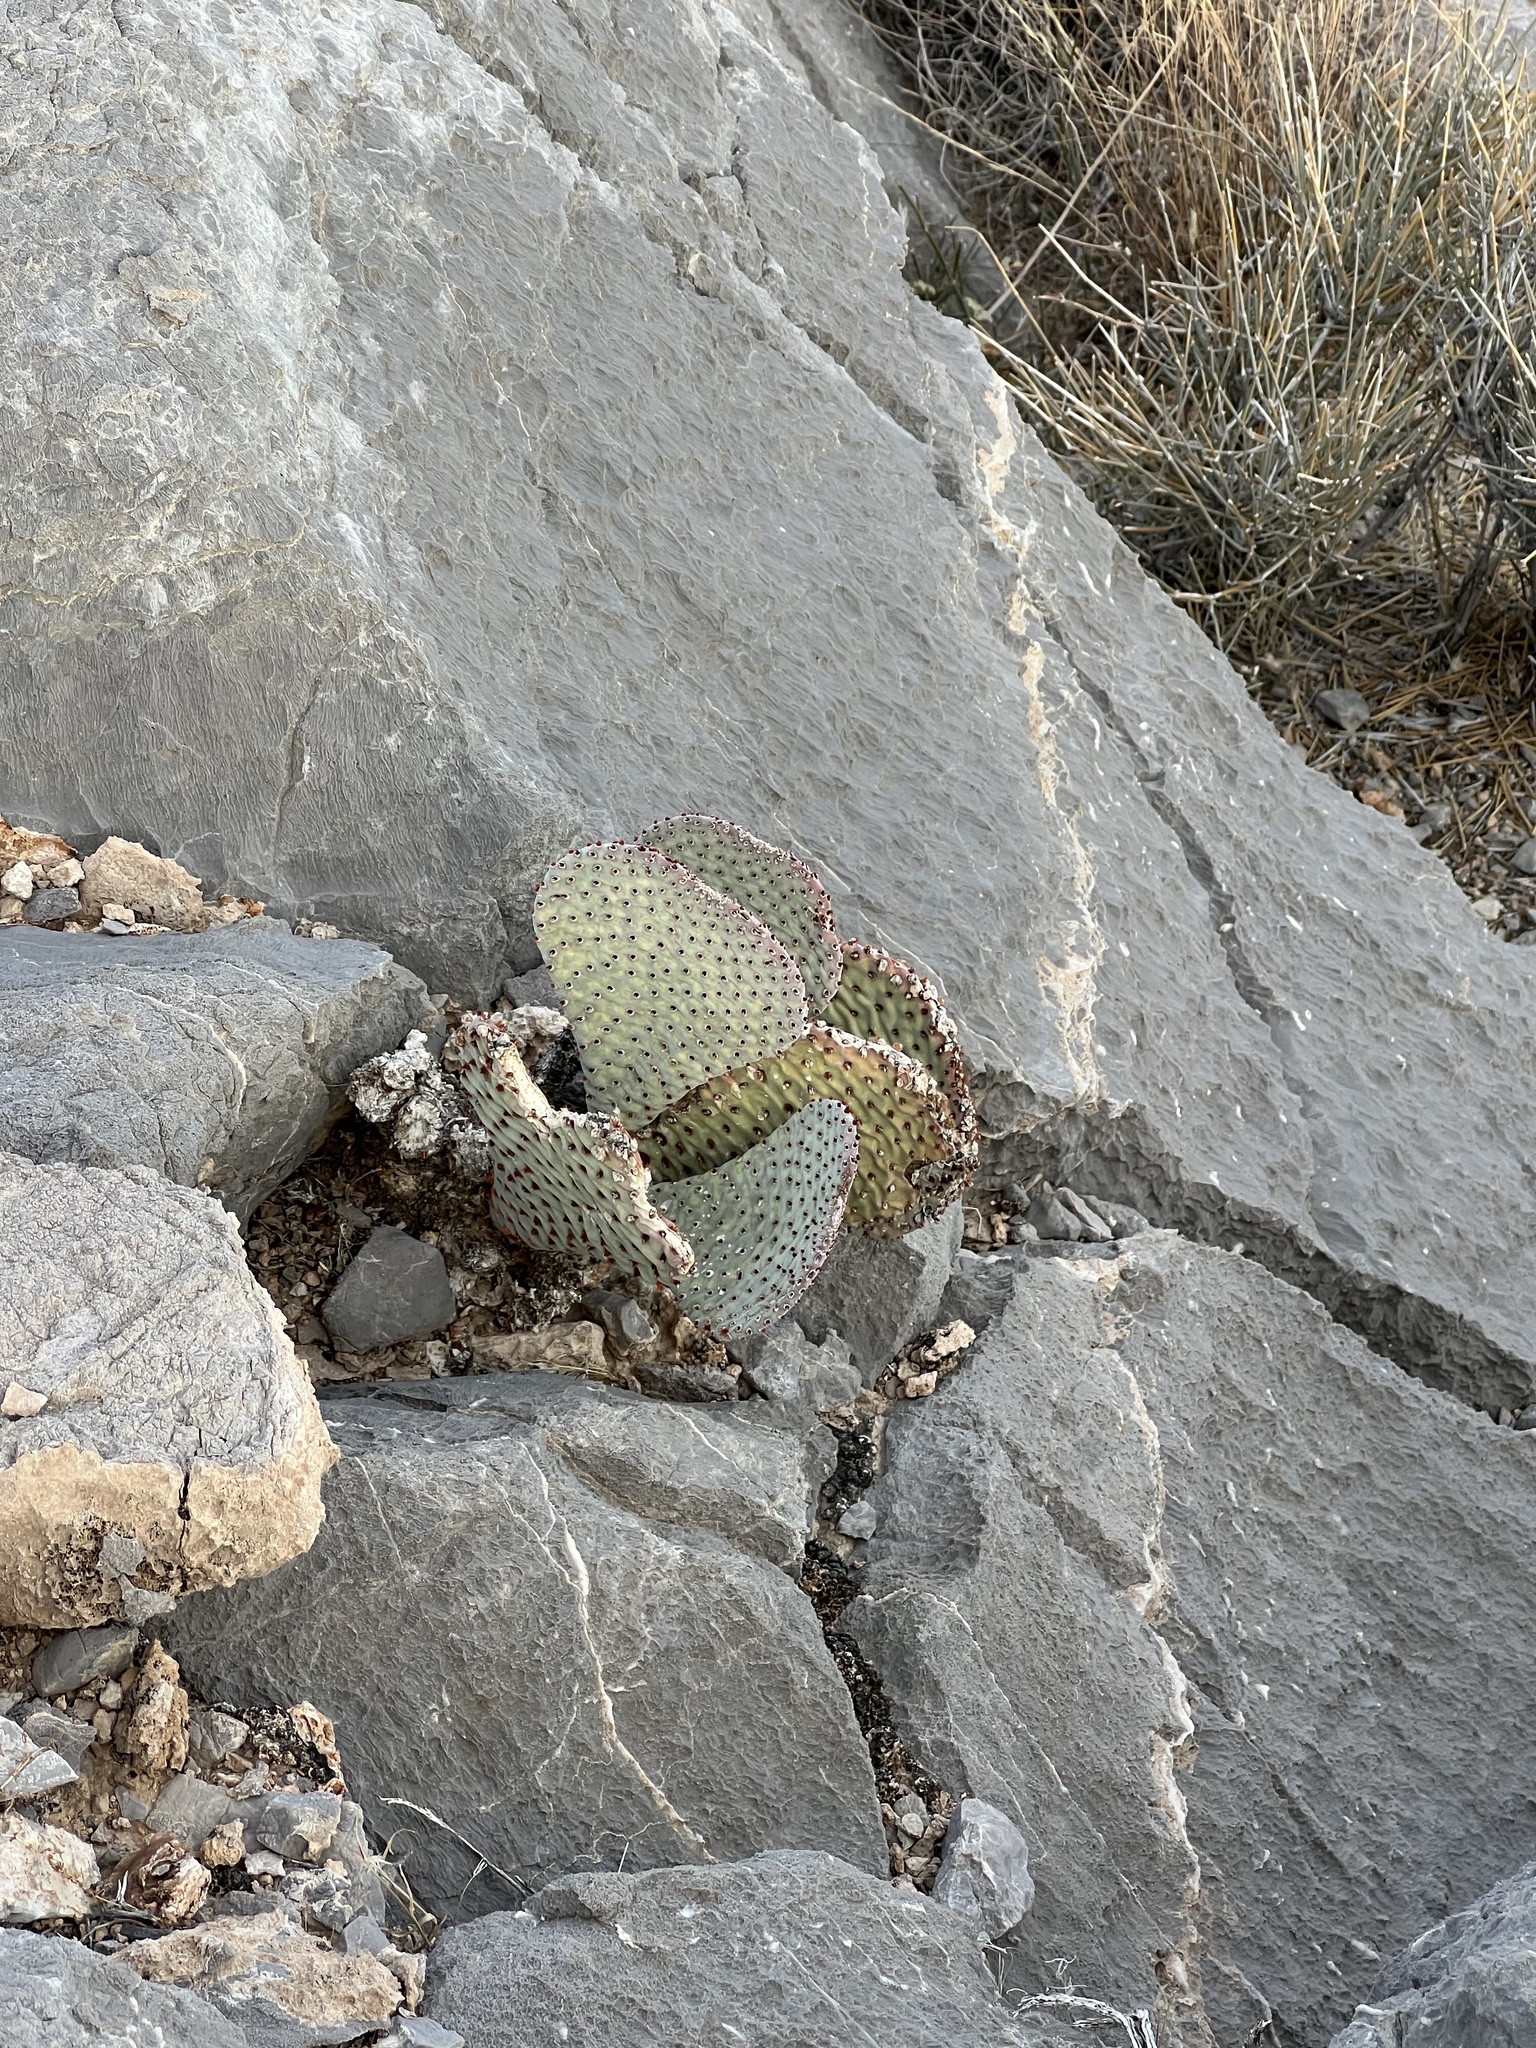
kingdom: Plantae
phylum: Tracheophyta
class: Magnoliopsida
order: Caryophyllales
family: Cactaceae
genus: Opuntia
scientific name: Opuntia basilaris
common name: Beavertail prickly-pear
